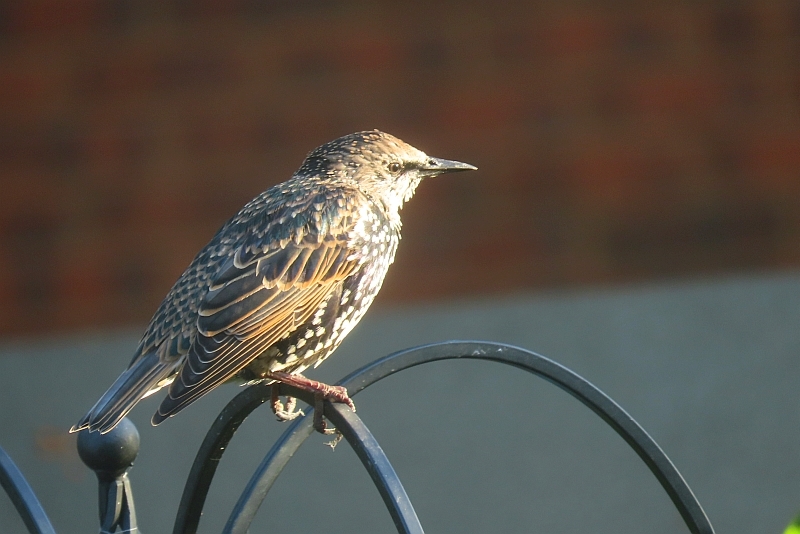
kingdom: Animalia
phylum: Chordata
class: Aves
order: Passeriformes
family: Sturnidae
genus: Sturnus
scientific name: Sturnus vulgaris
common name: Common starling
